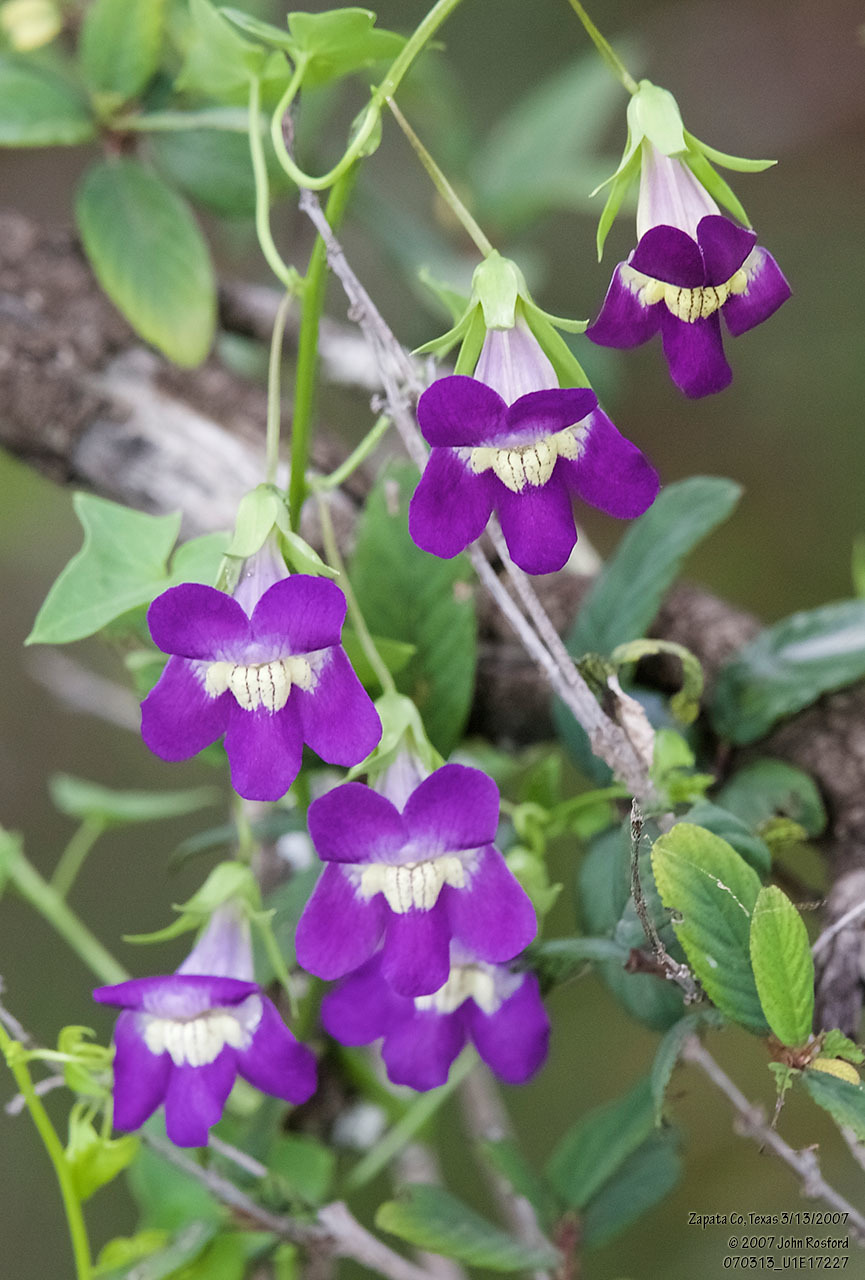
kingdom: Plantae
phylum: Tracheophyta
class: Magnoliopsida
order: Lamiales
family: Plantaginaceae
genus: Maurandella
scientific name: Maurandella antirrhiniflora
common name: Violet twining-snapdragon
